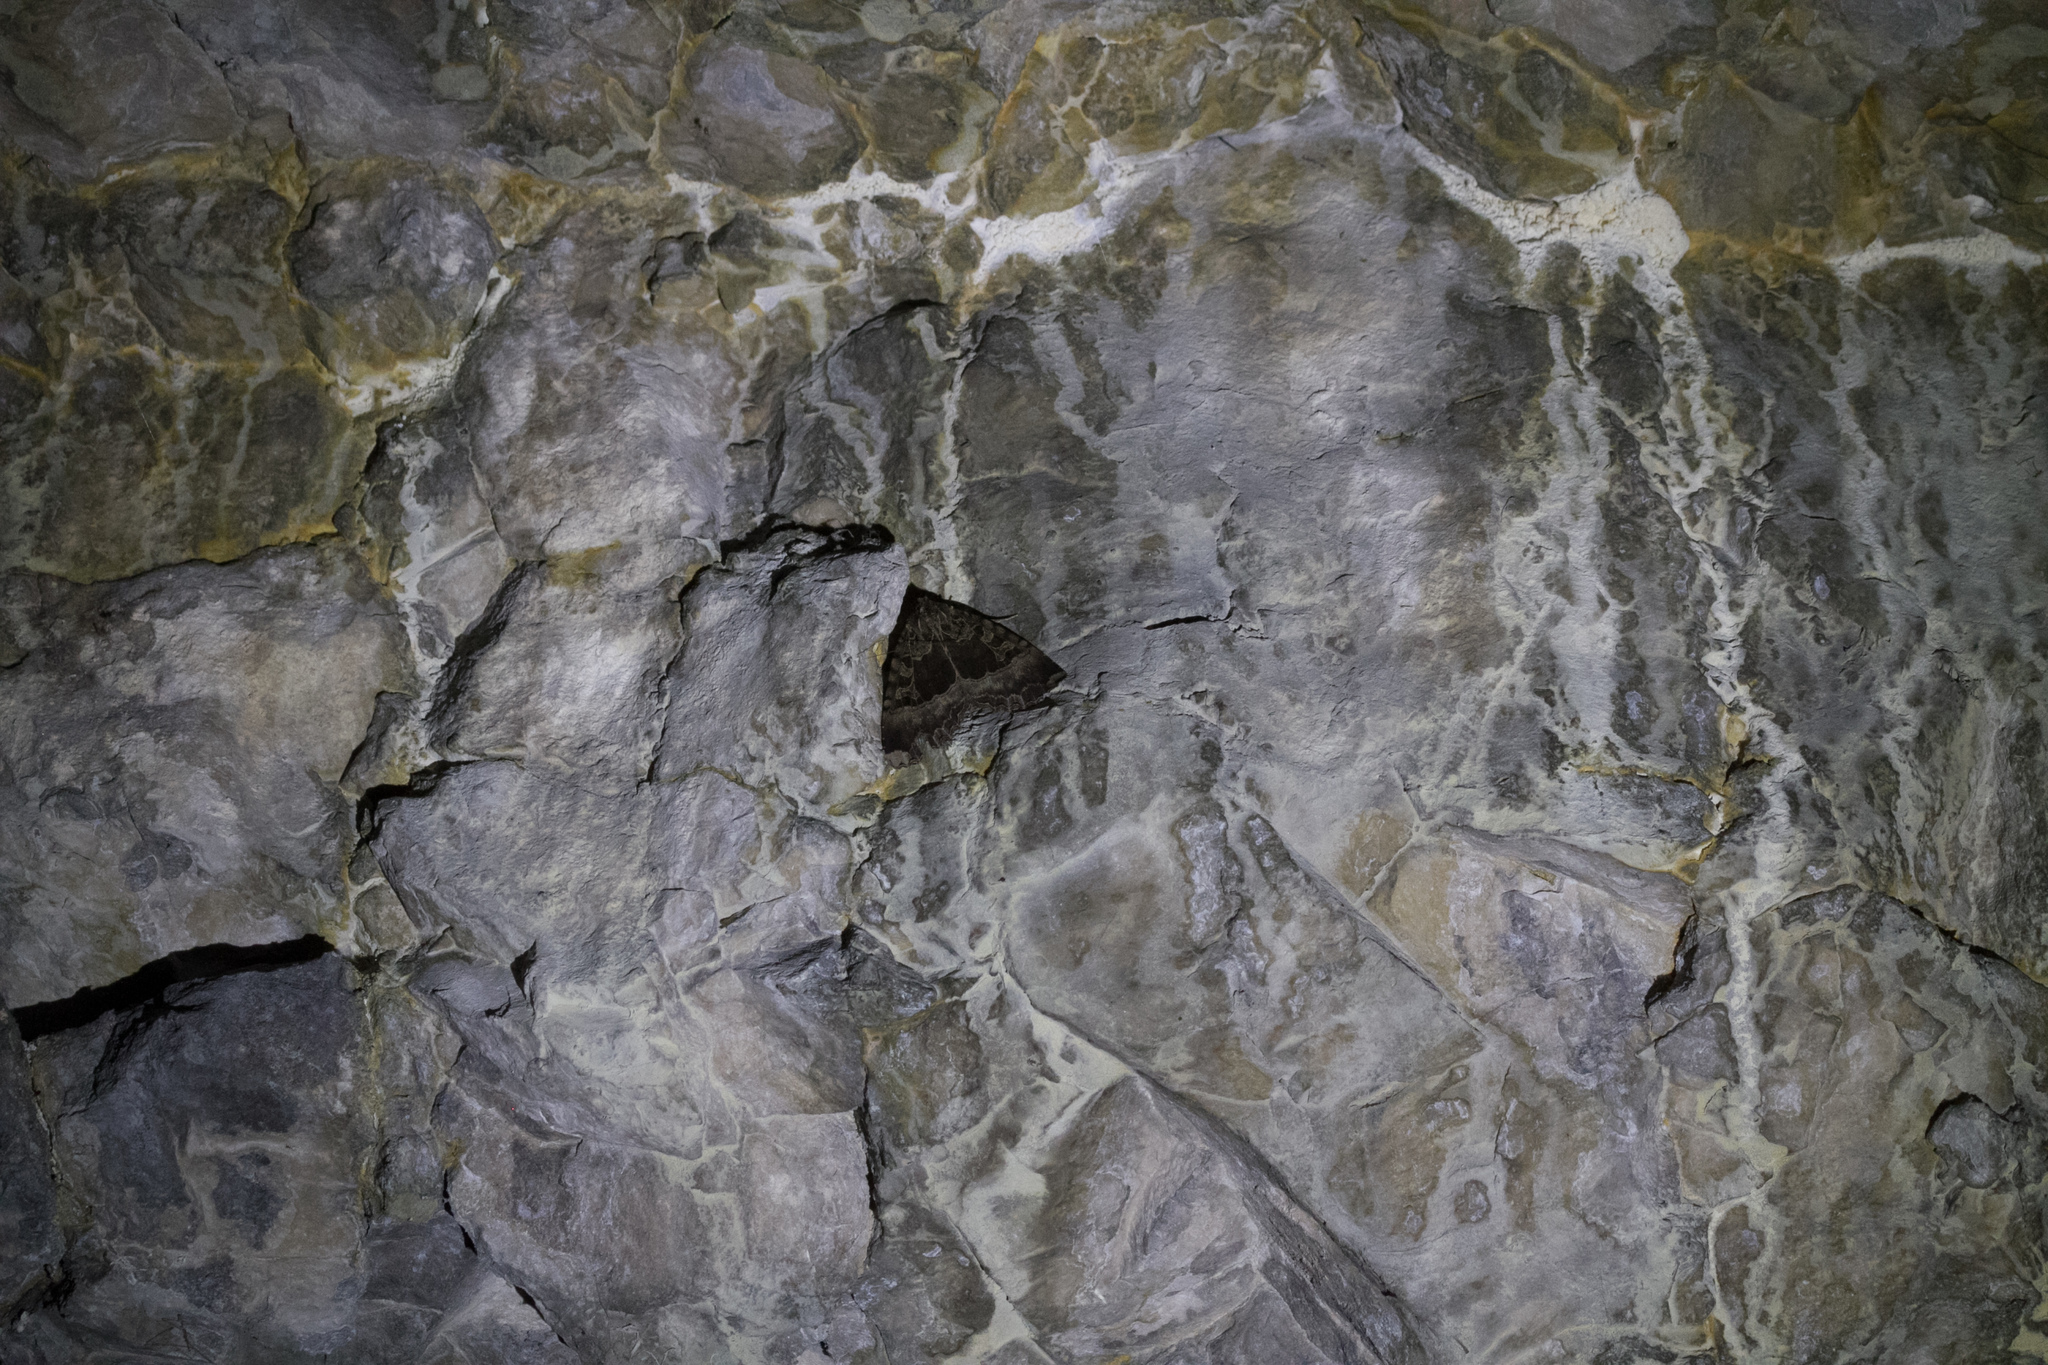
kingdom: Animalia
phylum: Arthropoda
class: Insecta
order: Lepidoptera
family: Noctuidae
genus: Mormo
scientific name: Mormo maura
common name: Old lady
